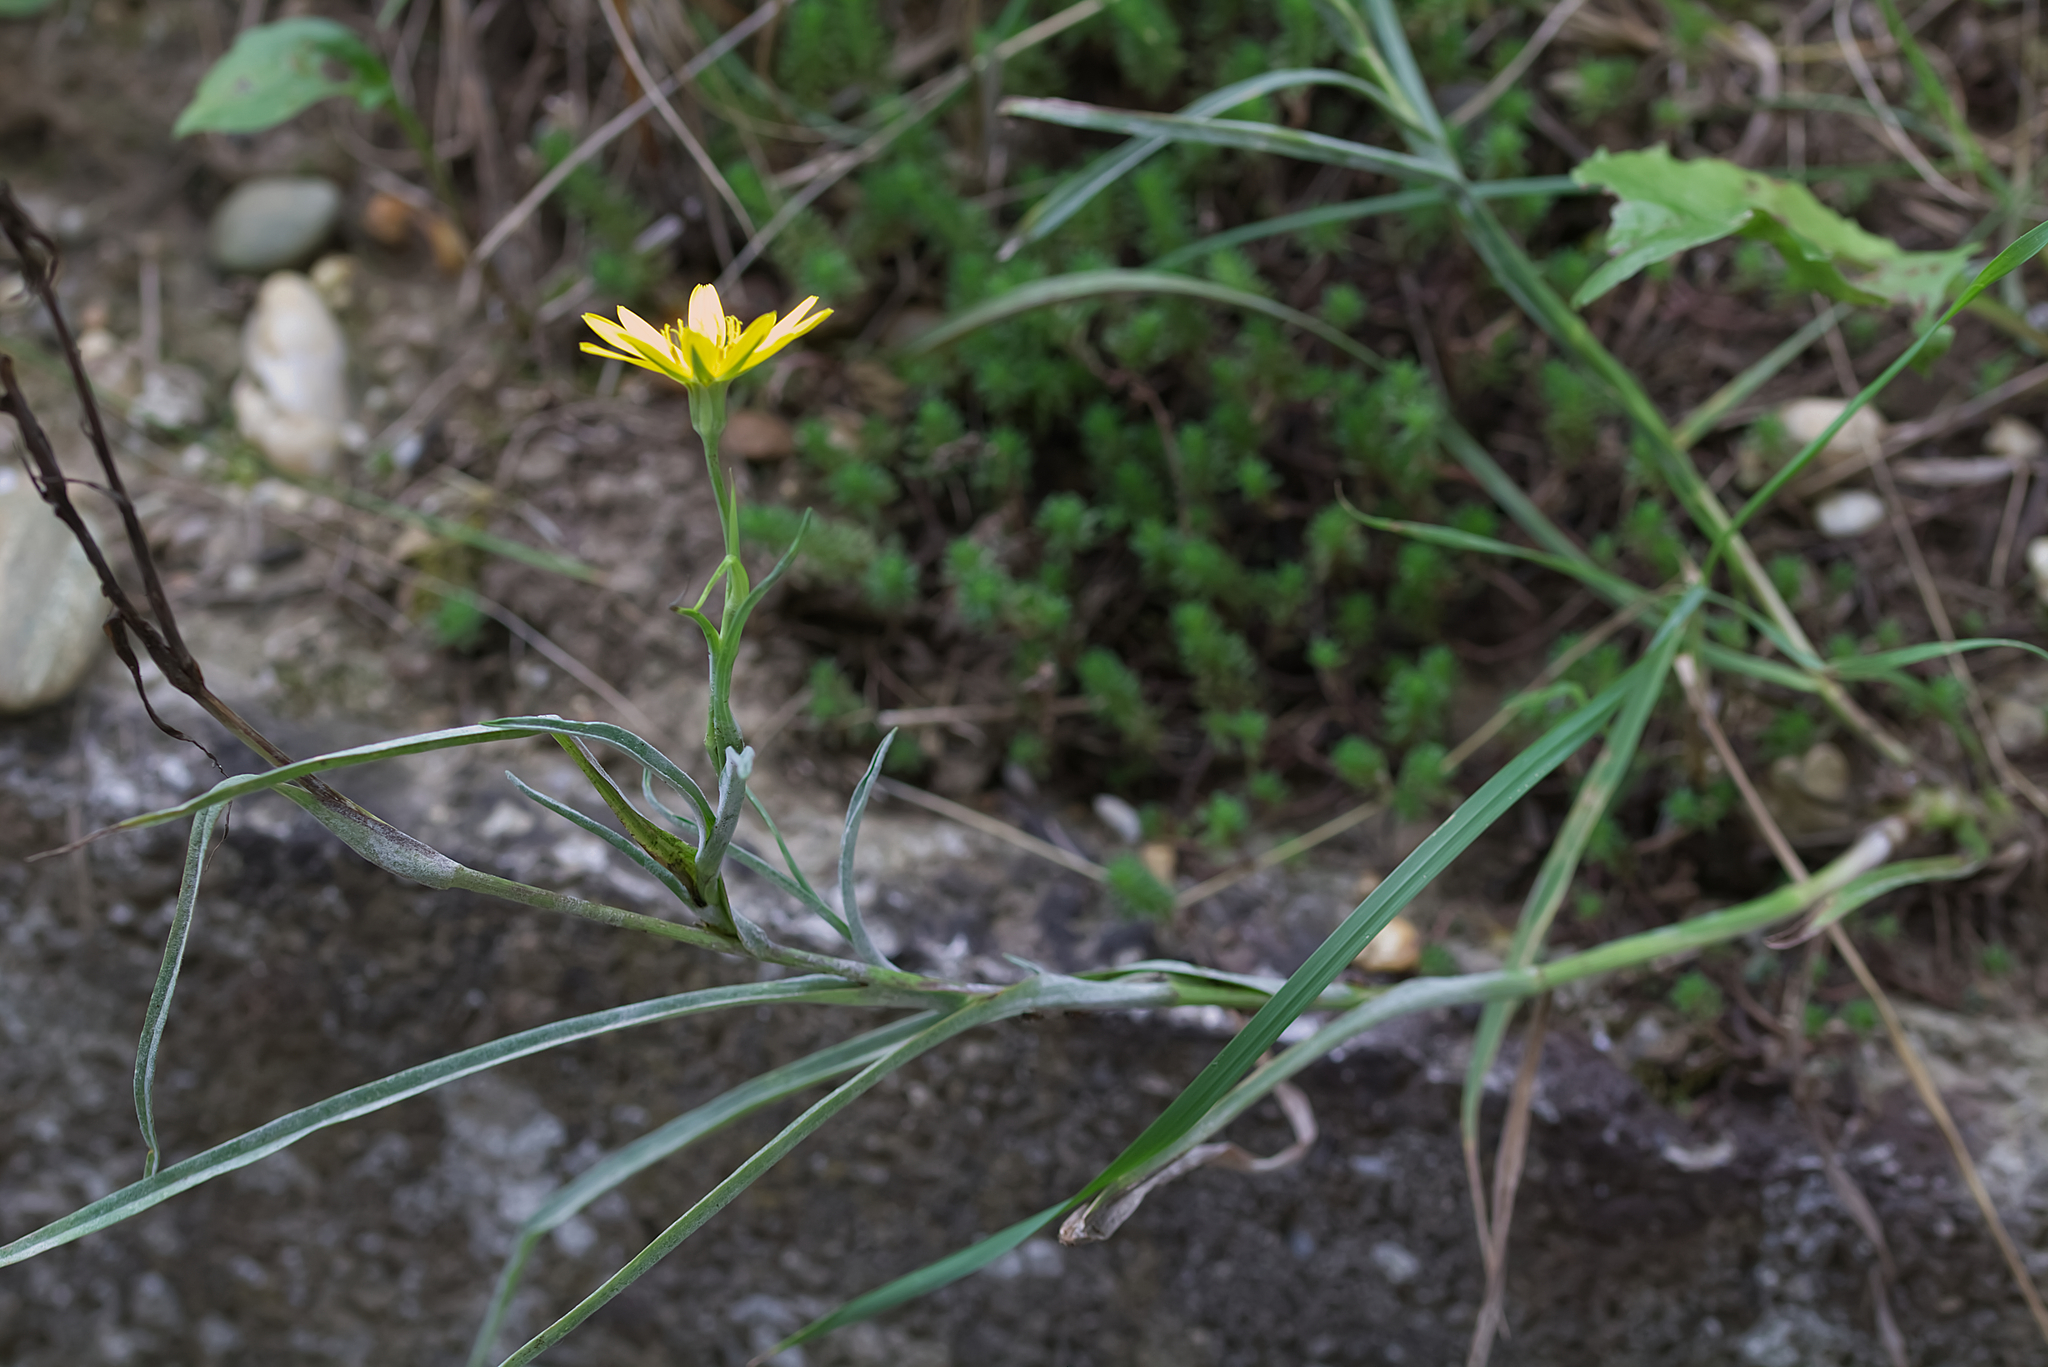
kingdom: Plantae
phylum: Tracheophyta
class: Magnoliopsida
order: Asterales
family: Asteraceae
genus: Tragopogon
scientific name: Tragopogon orientalis
